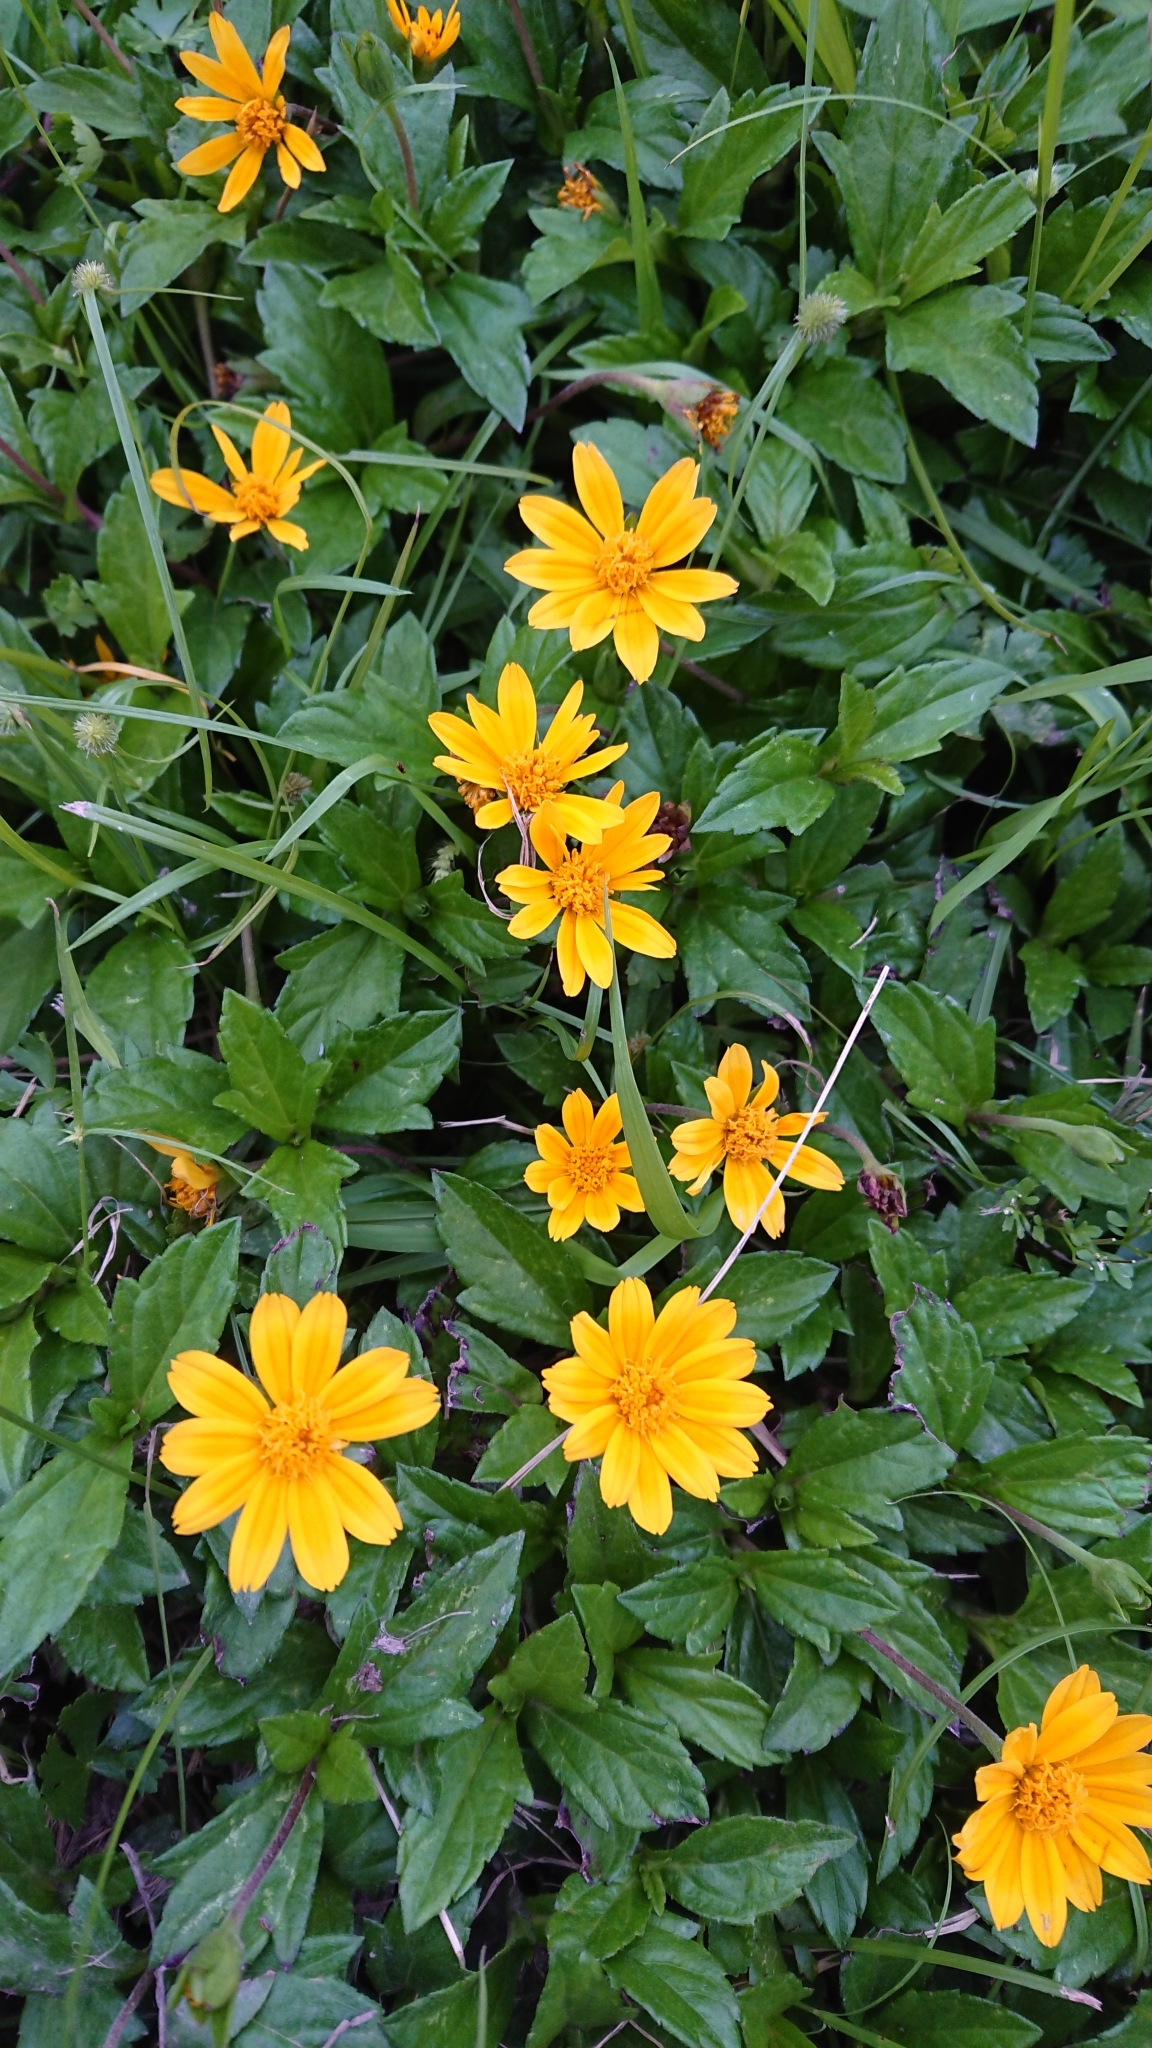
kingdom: Plantae
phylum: Tracheophyta
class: Magnoliopsida
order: Asterales
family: Asteraceae
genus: Sphagneticola
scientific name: Sphagneticola trilobata
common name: Bay biscayne creeping-oxeye
